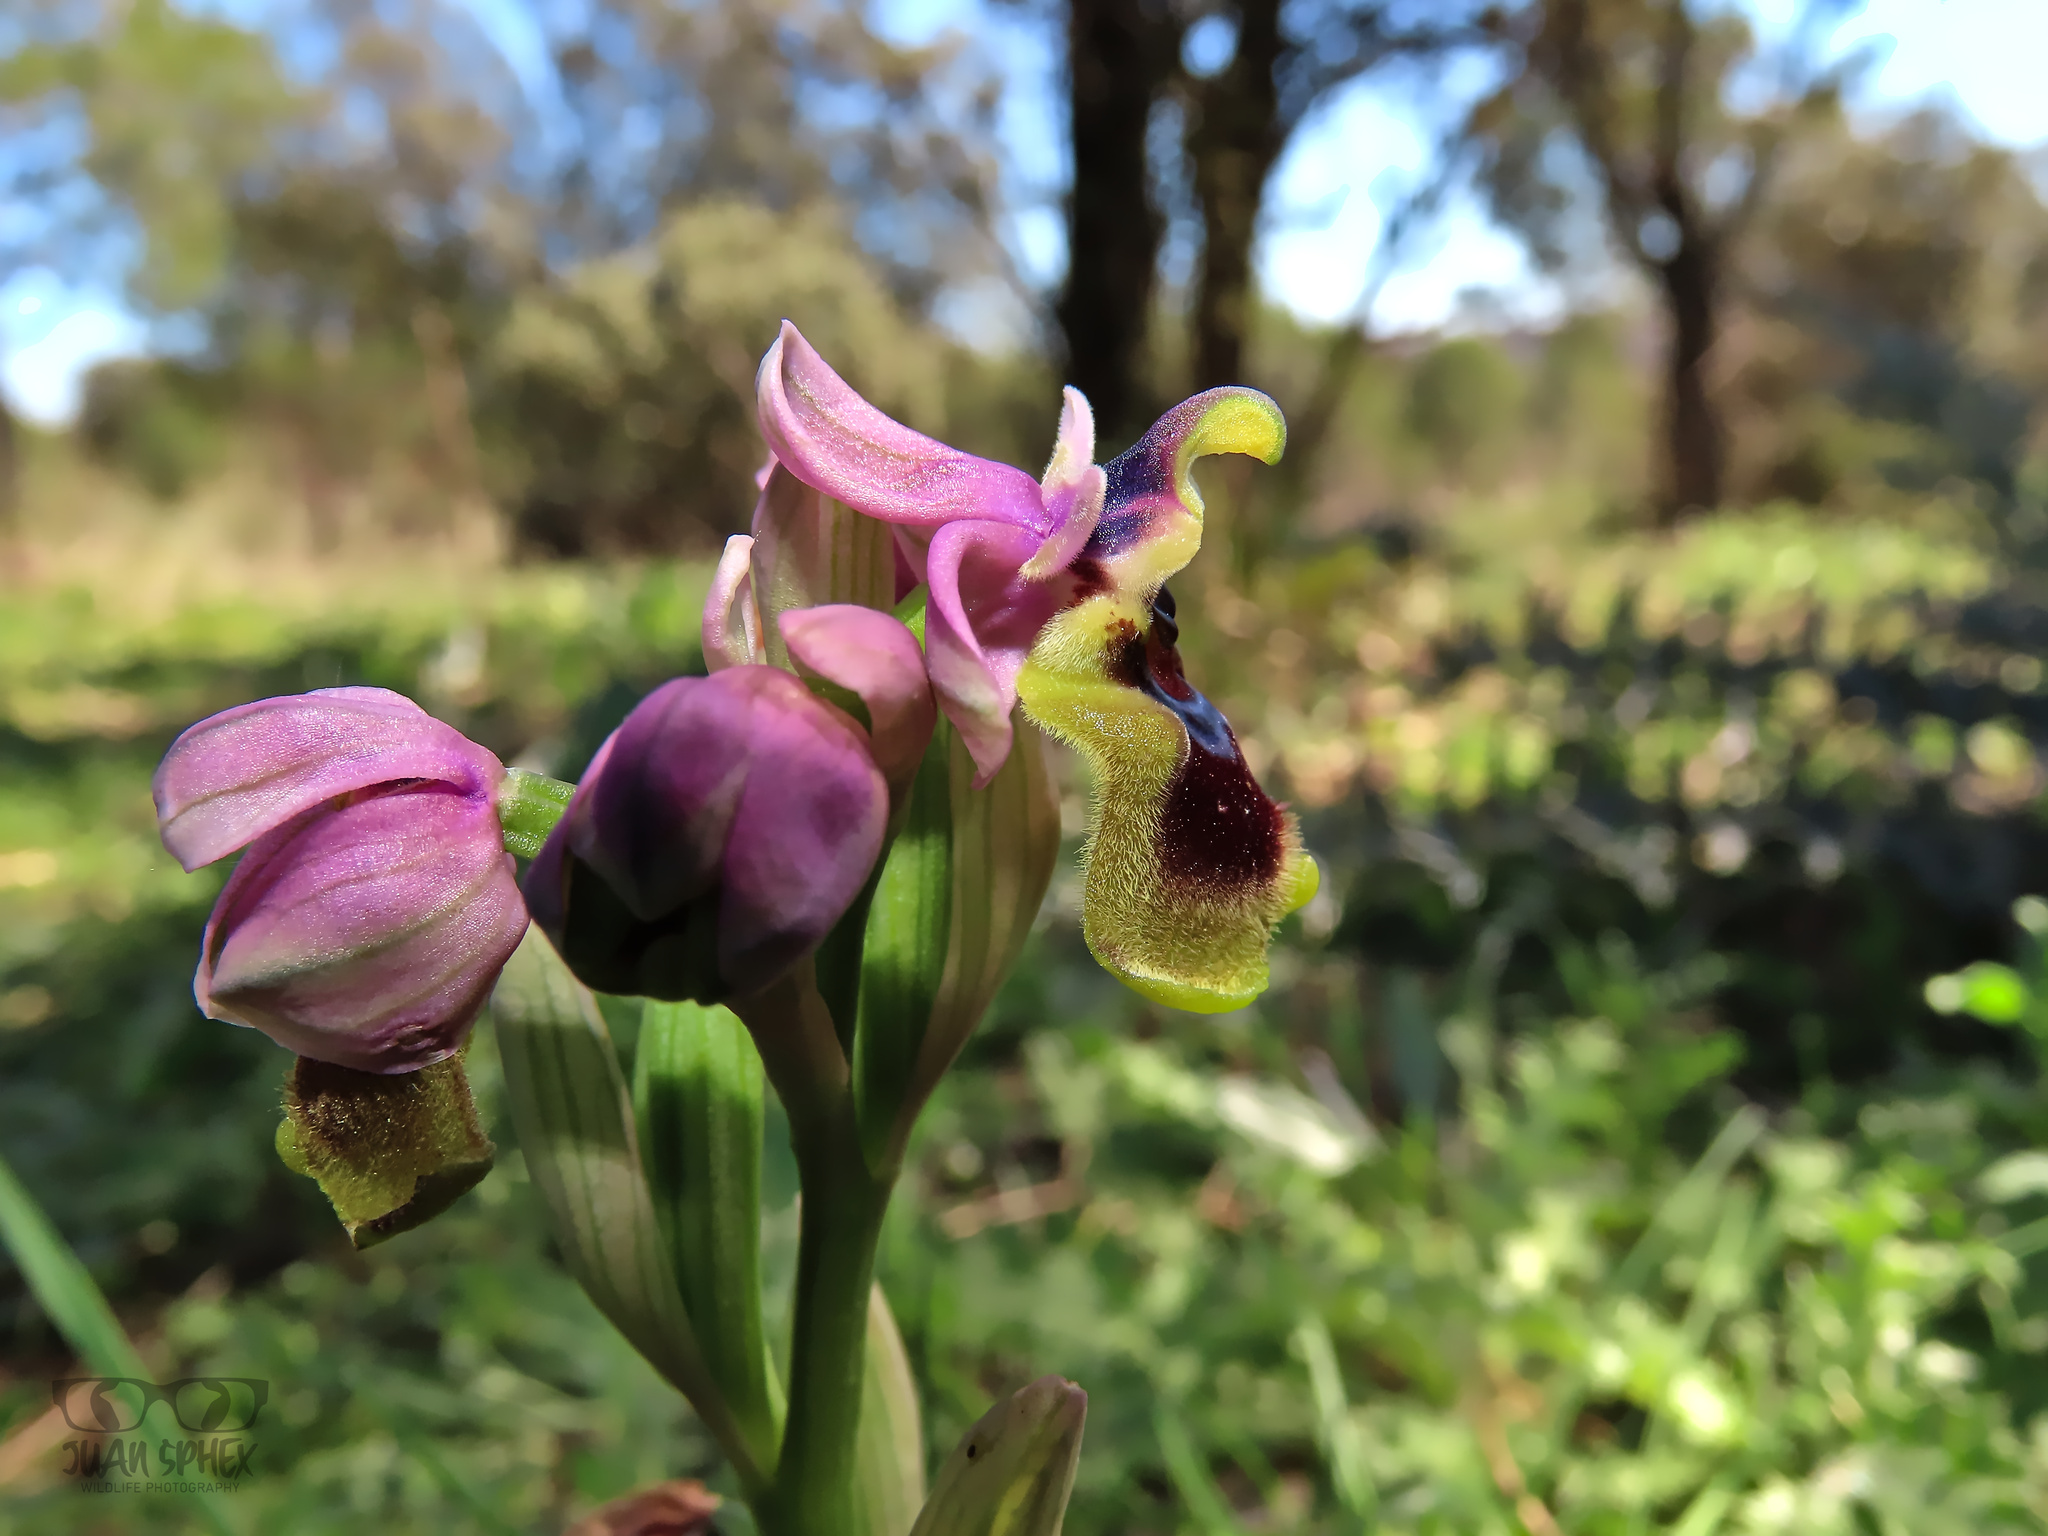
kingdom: Plantae
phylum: Tracheophyta
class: Liliopsida
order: Asparagales
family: Orchidaceae
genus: Ophrys
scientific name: Ophrys tenthredinifera
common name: Sawfly orchid
